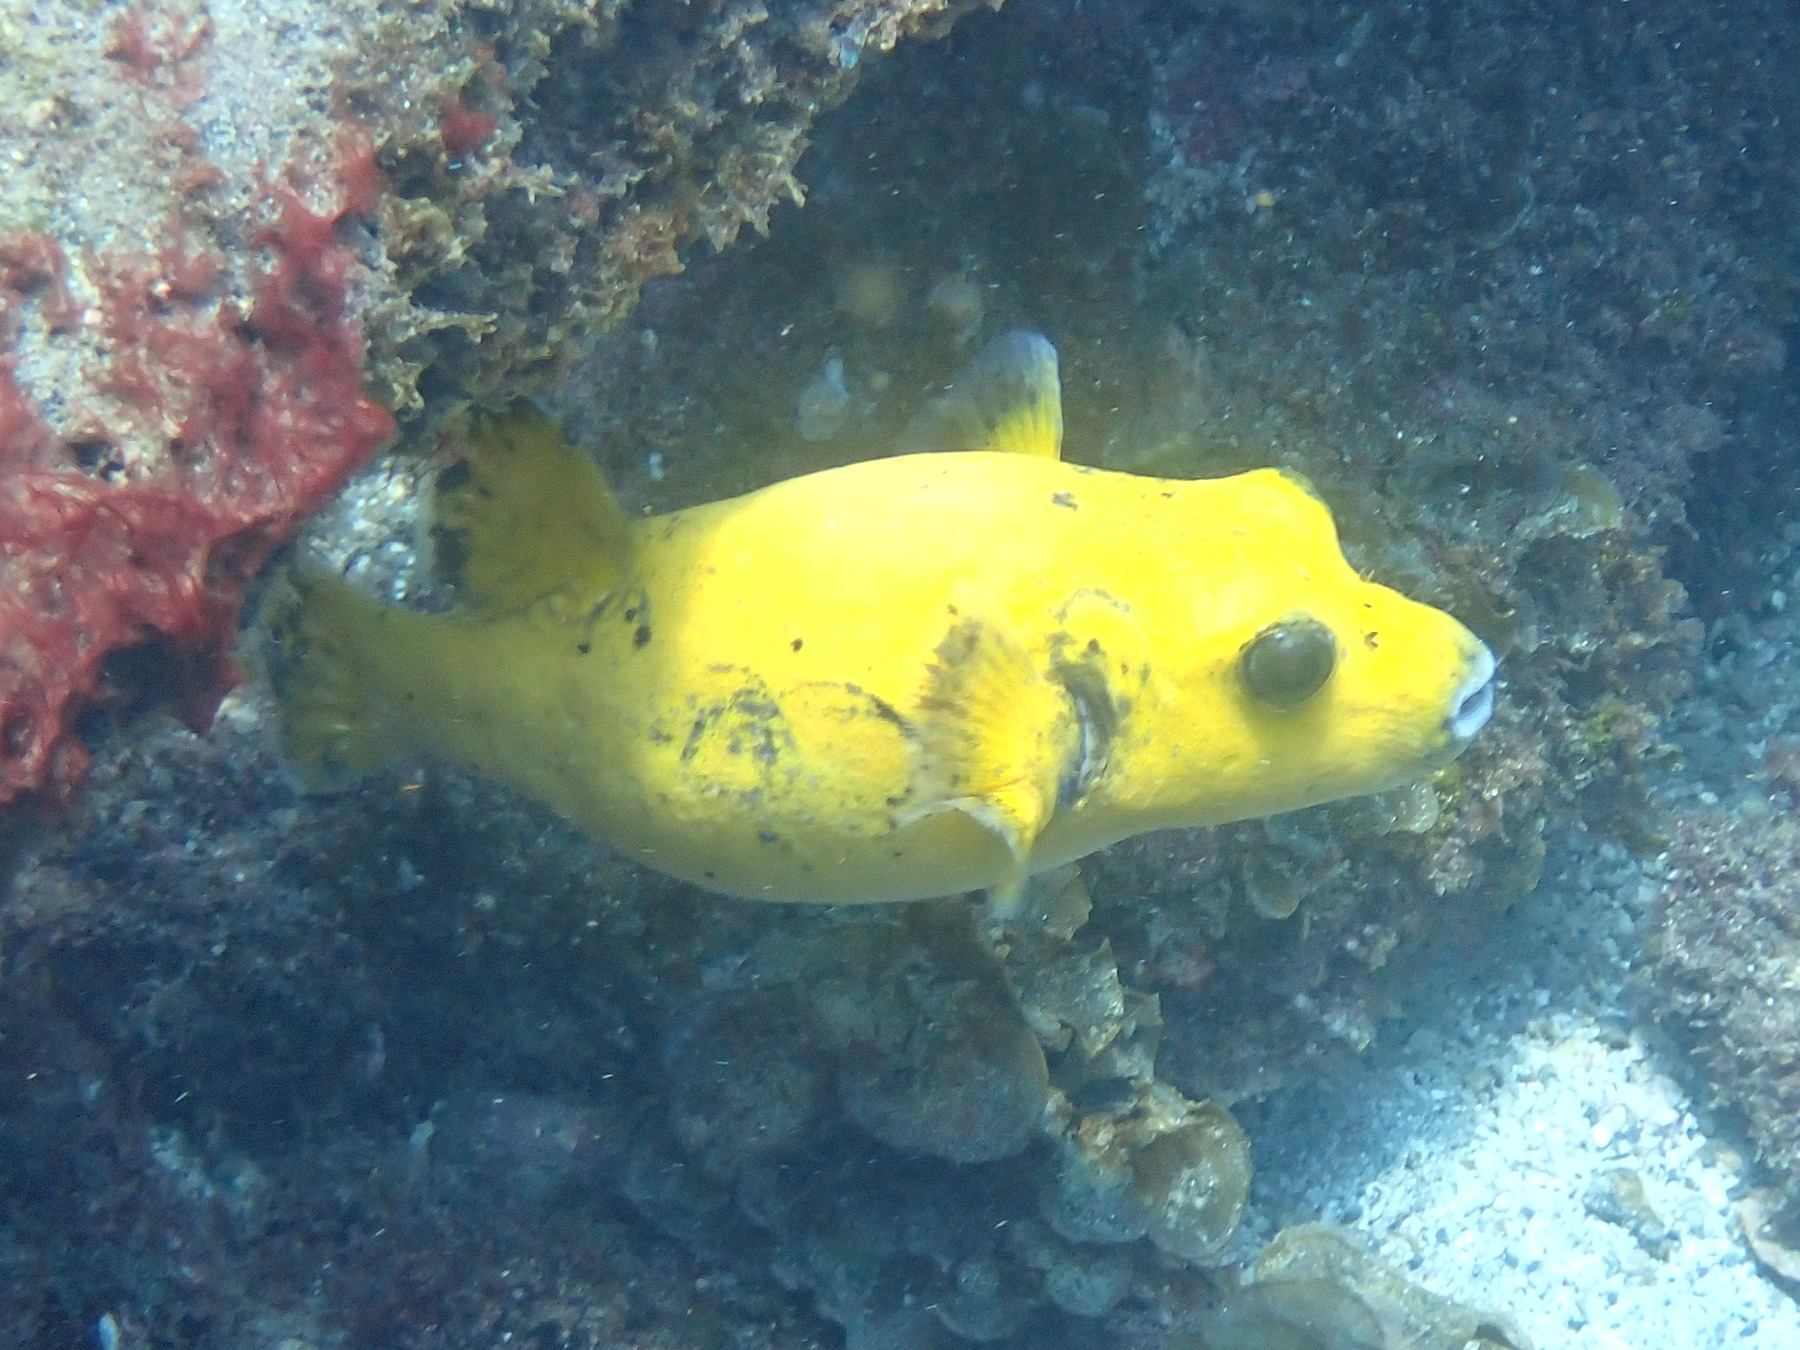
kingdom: Animalia
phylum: Chordata
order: Tetraodontiformes
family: Tetraodontidae
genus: Arothron
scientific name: Arothron meleagris
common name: Guinea-fowl pufferfish
